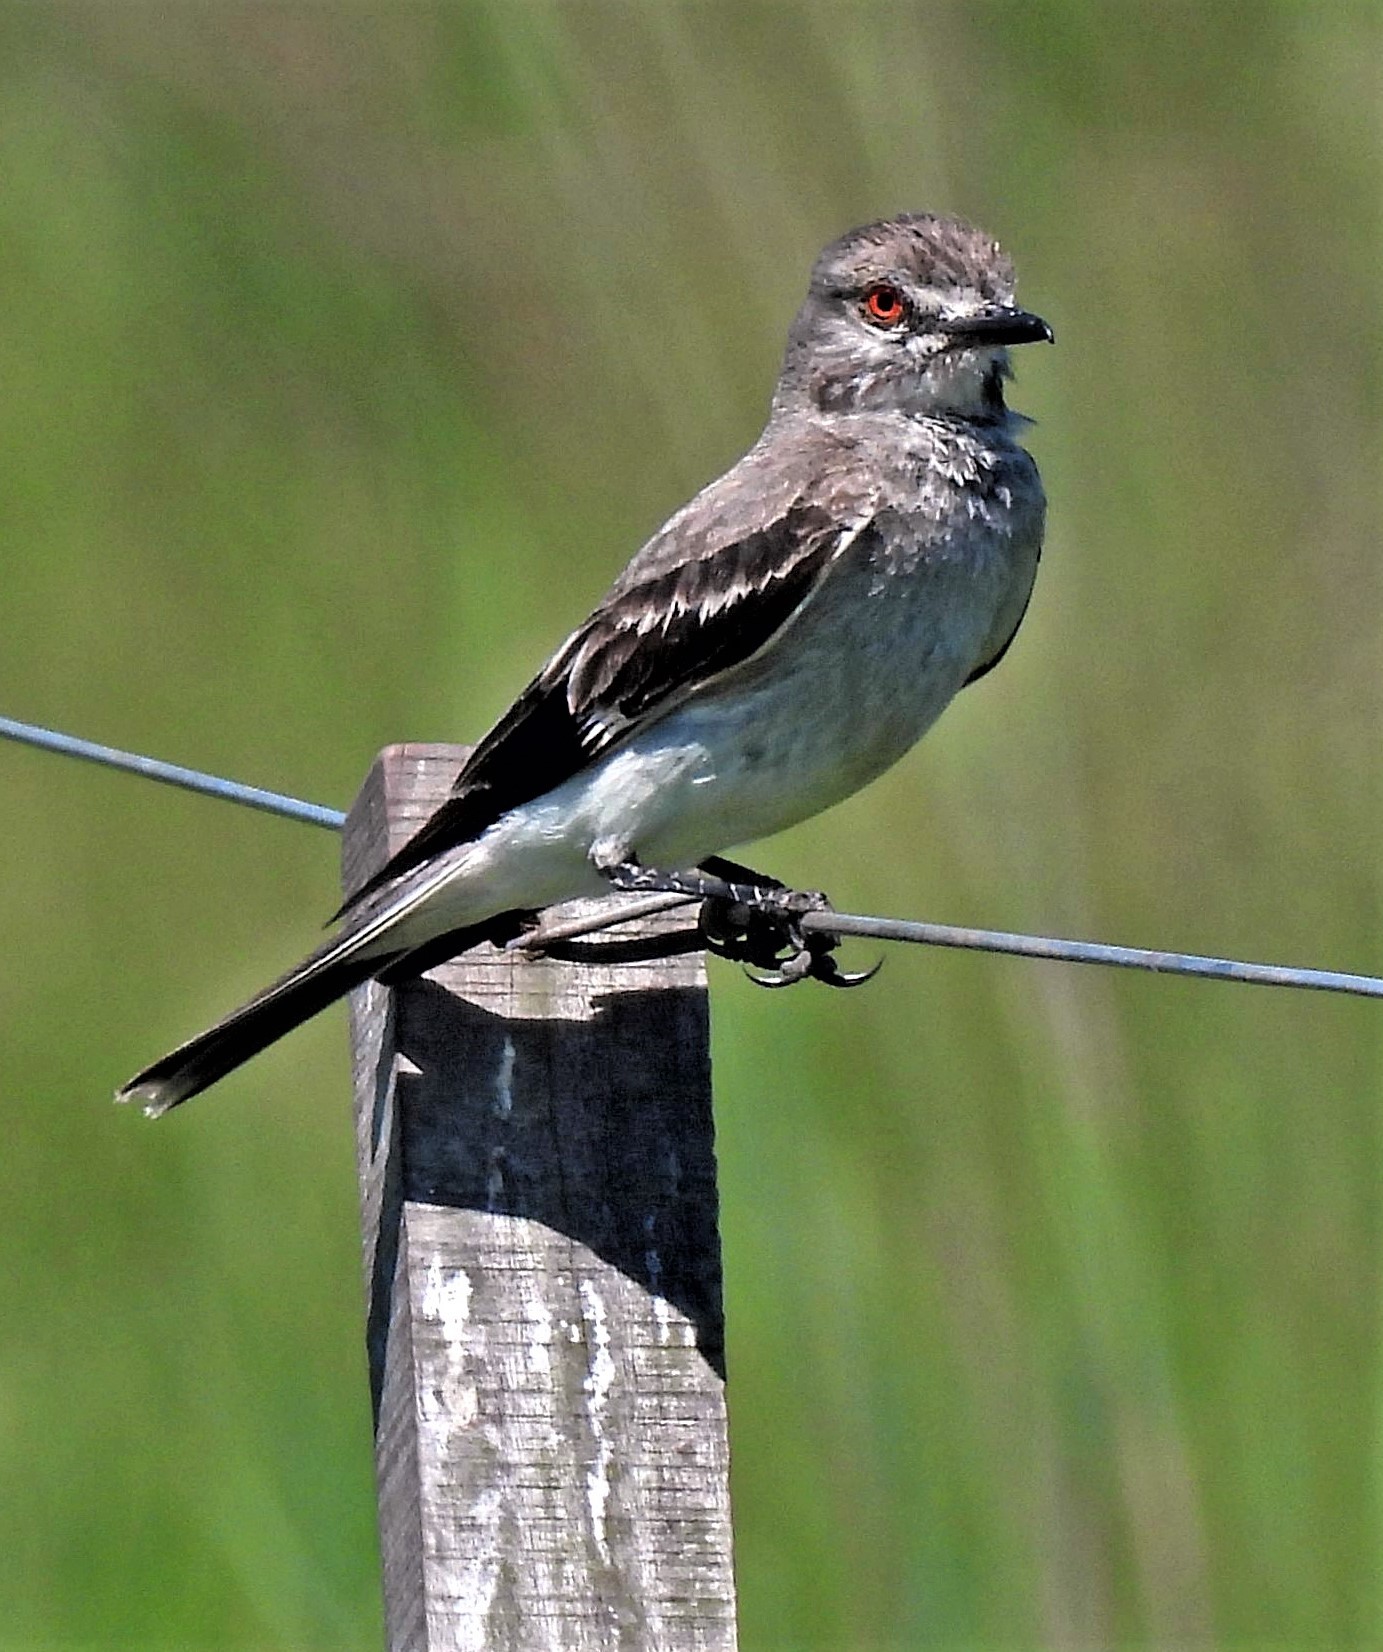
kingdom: Animalia
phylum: Chordata
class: Aves
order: Passeriformes
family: Tyrannidae
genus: Xolmis
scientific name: Xolmis cinereus
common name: Grey monjita
